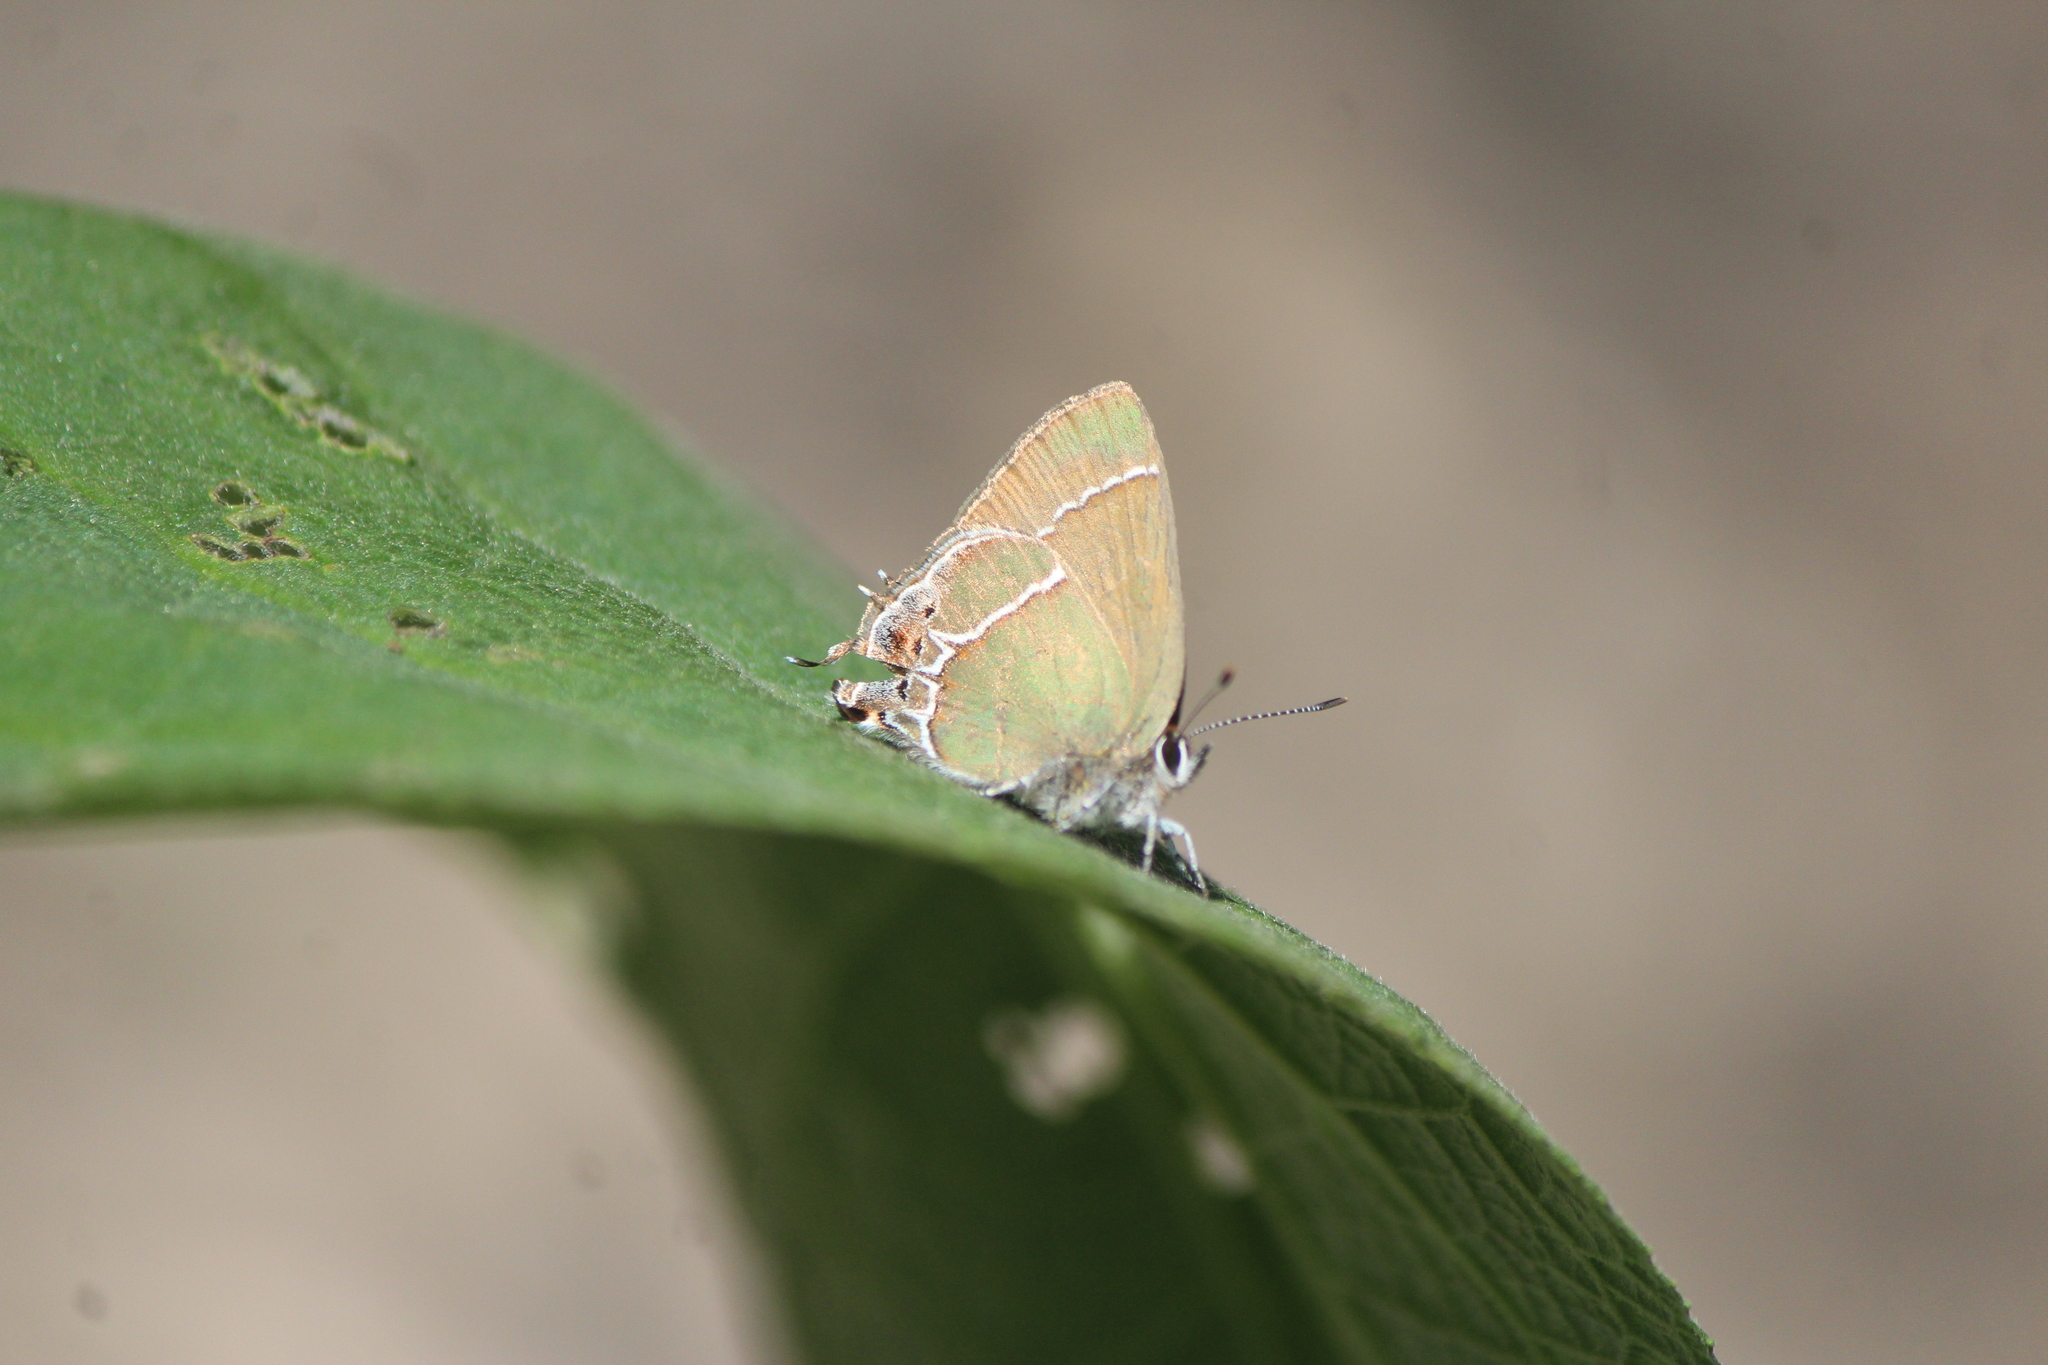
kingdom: Animalia
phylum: Arthropoda
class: Insecta
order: Lepidoptera
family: Lycaenidae
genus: Xamia
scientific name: Xamia xami
